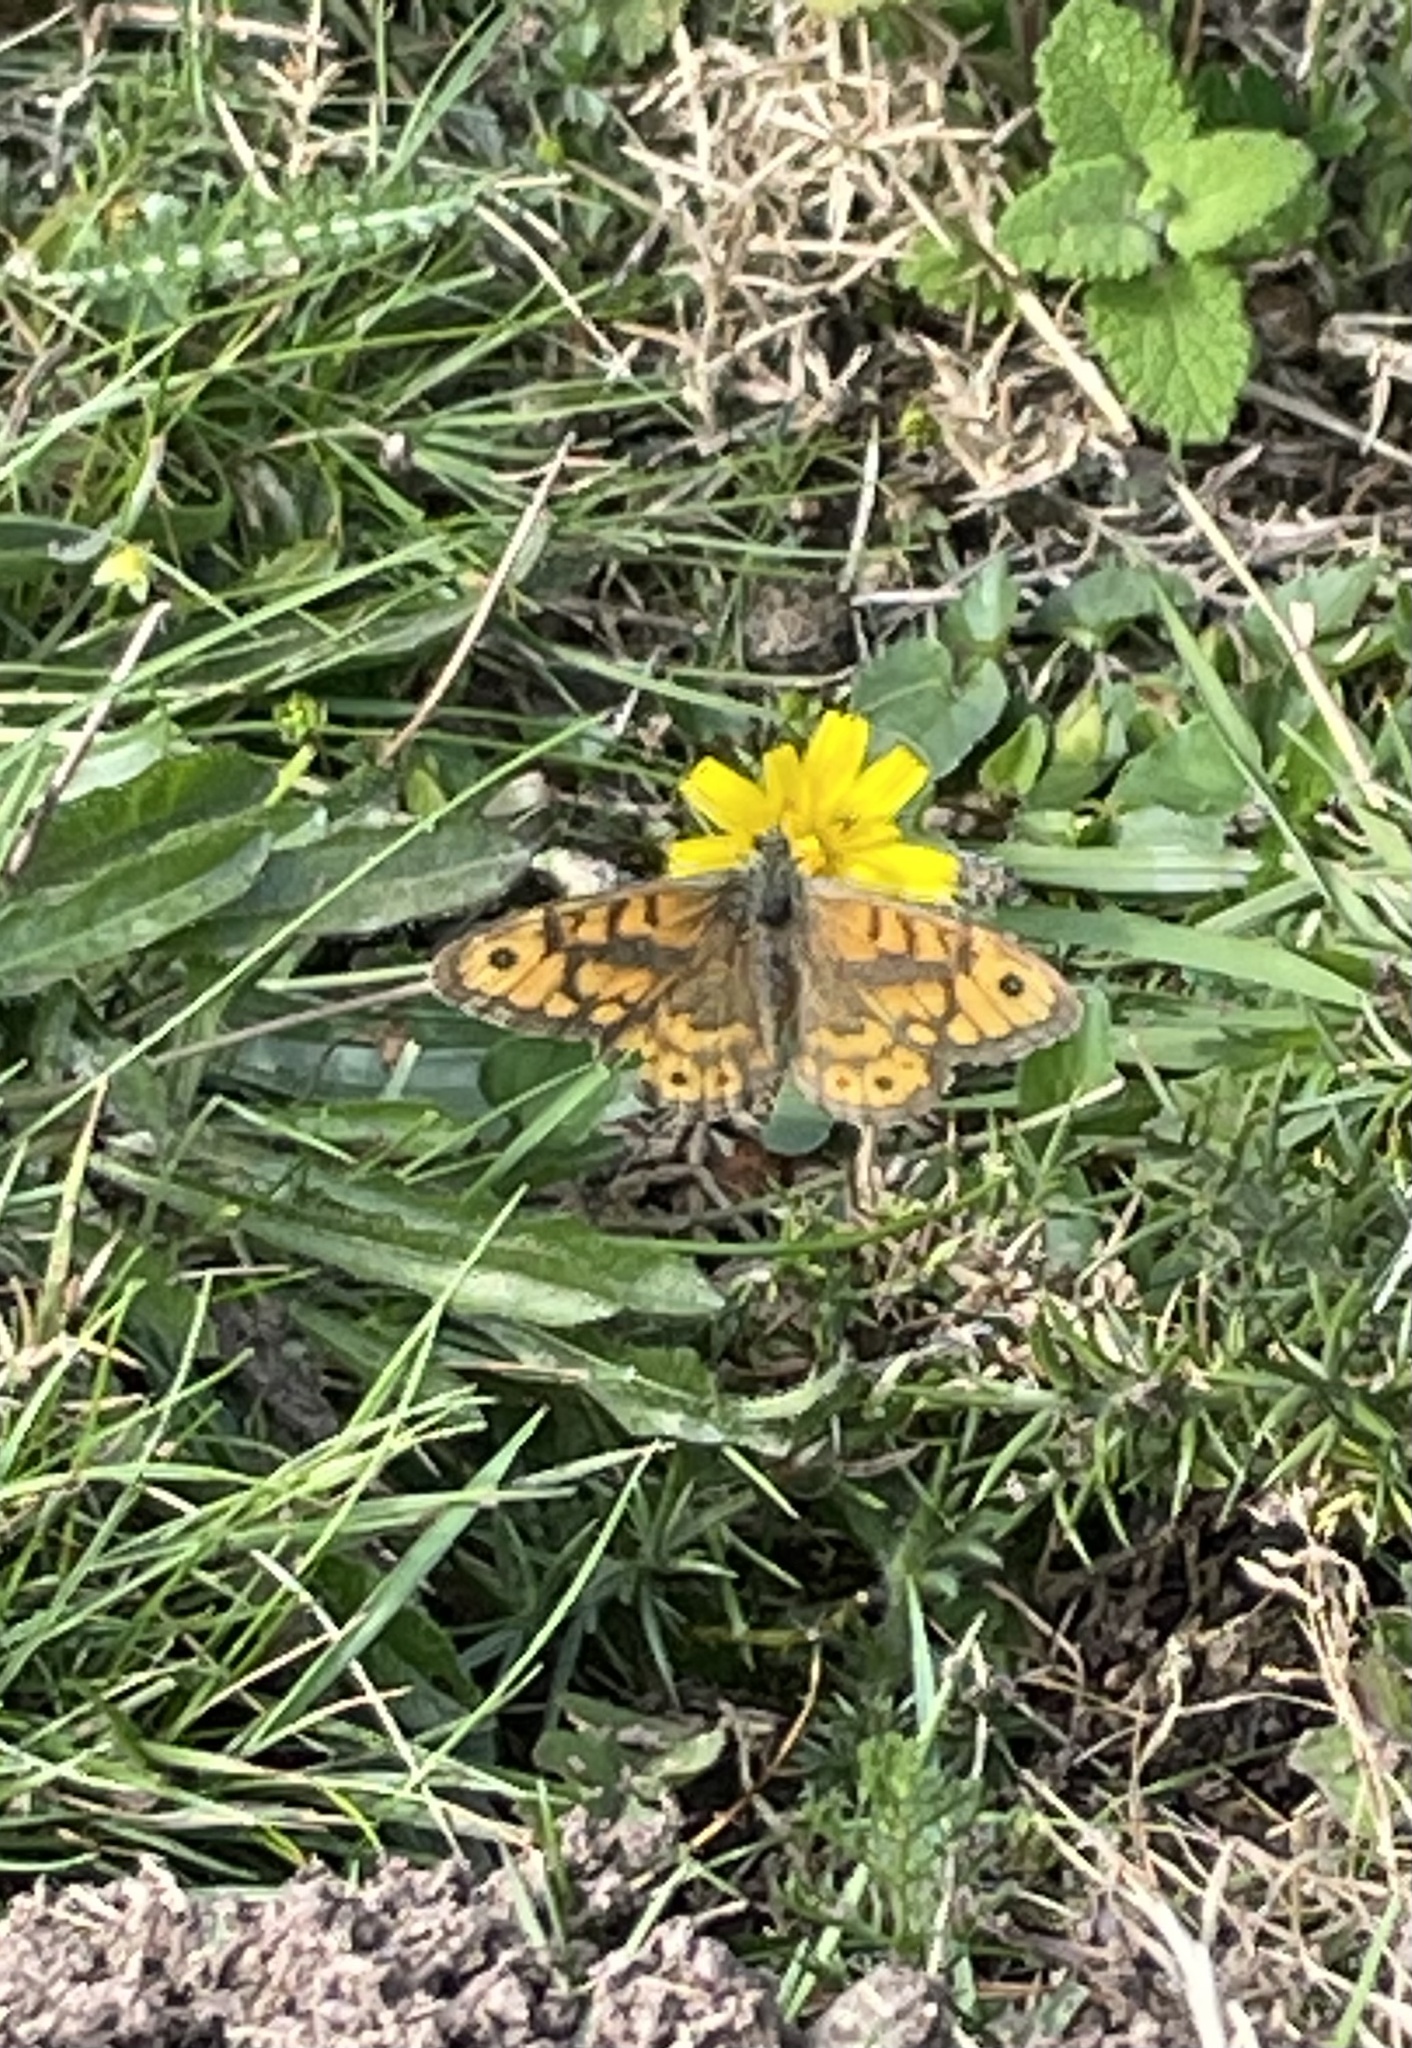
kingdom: Animalia
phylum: Arthropoda
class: Insecta
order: Lepidoptera
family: Nymphalidae
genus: Pararge
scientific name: Pararge Lasiommata megera
